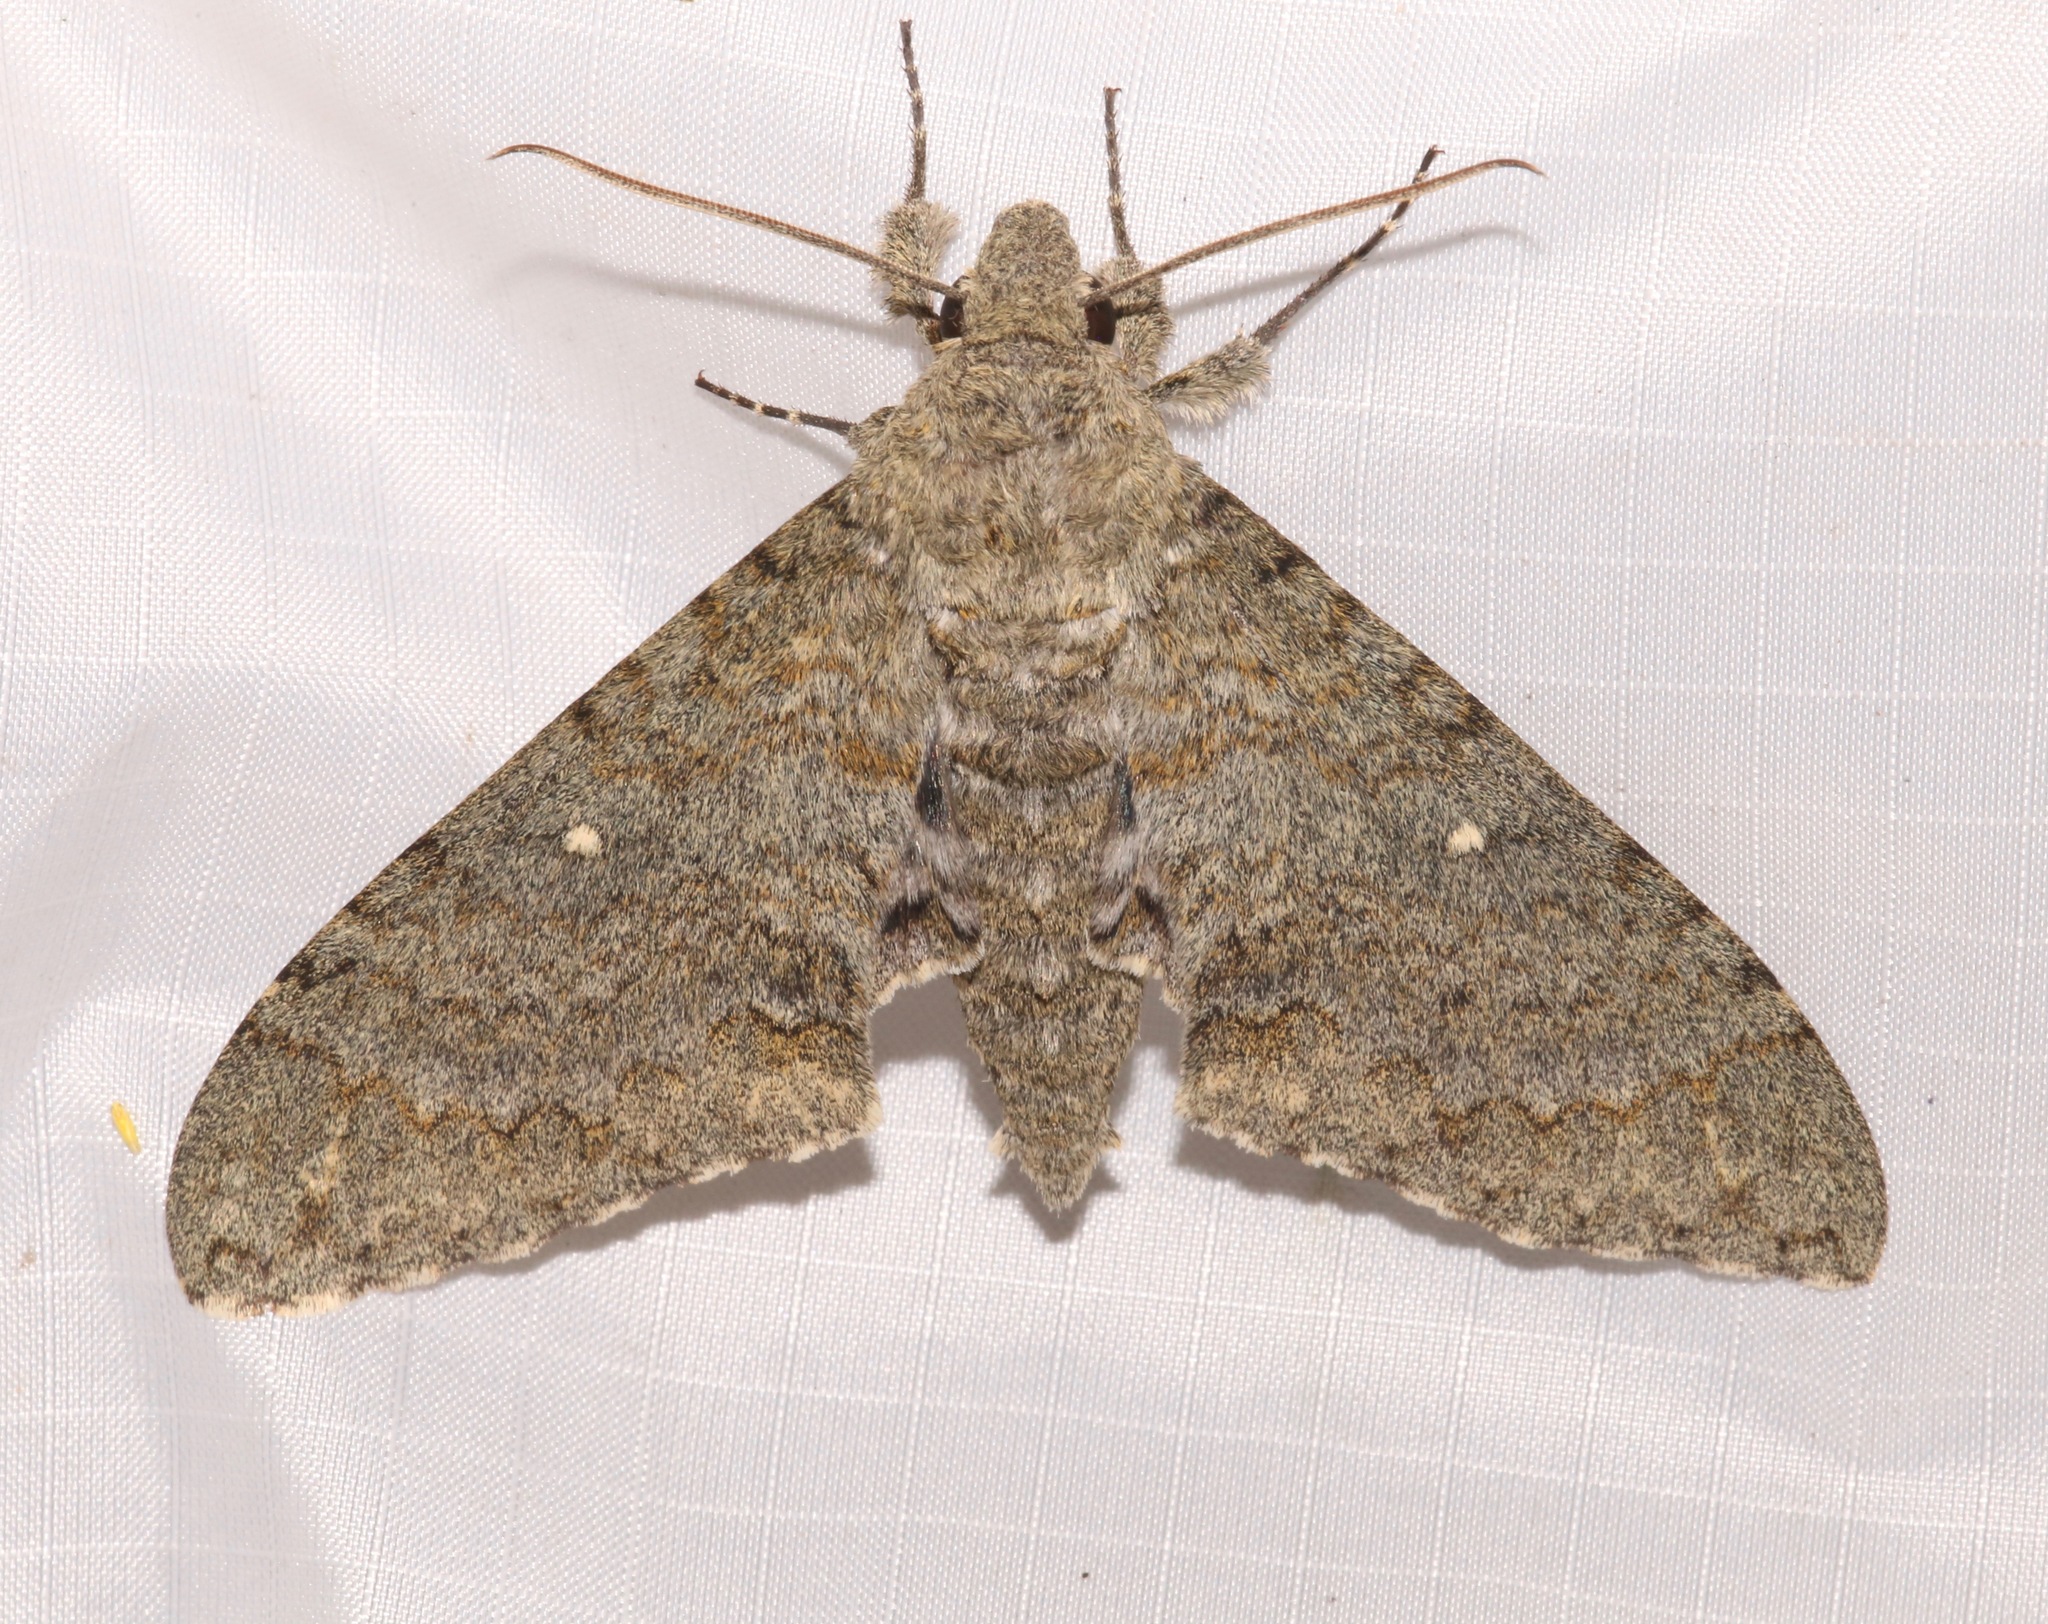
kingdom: Animalia
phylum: Arthropoda
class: Insecta
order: Lepidoptera
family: Sphingidae
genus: Manduca
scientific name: Manduca muscosa
